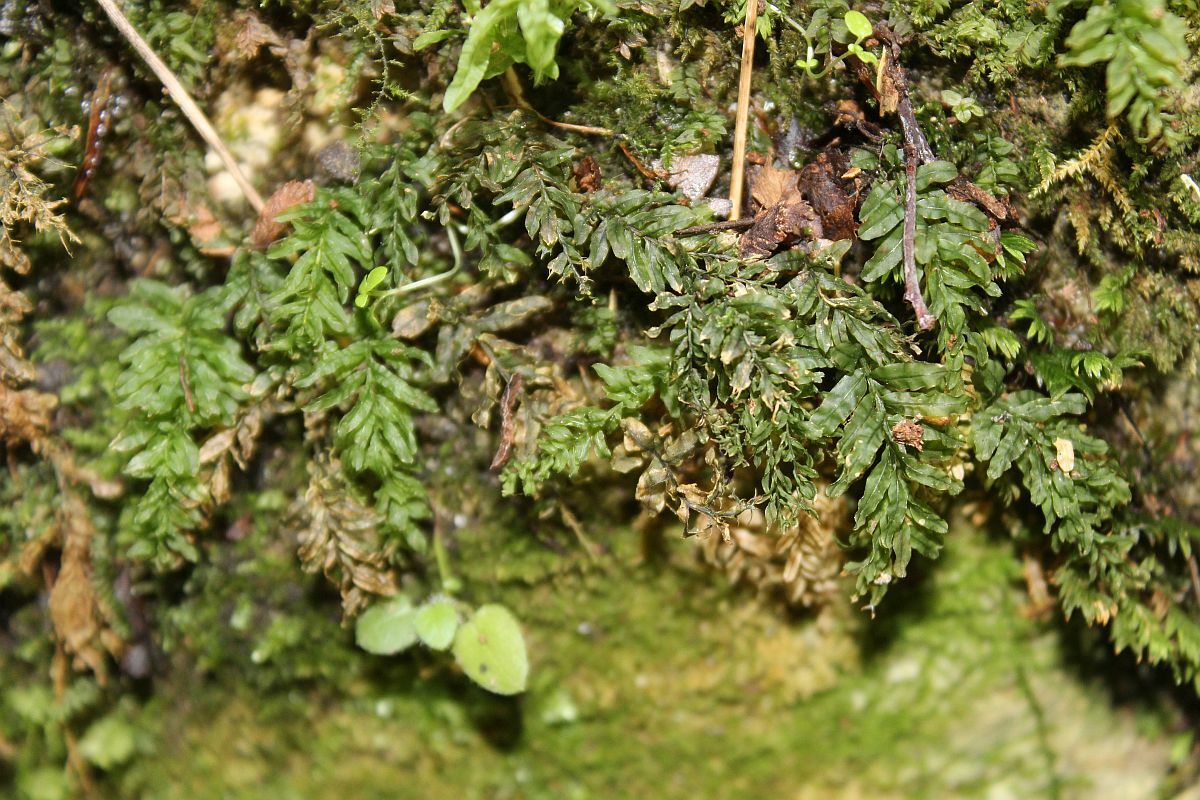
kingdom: Plantae
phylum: Bryophyta
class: Bryopsida
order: Bryales
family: Mniaceae
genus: Plagiomnium
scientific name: Plagiomnium undulatum
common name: Hart's-tongue thyme-moss
